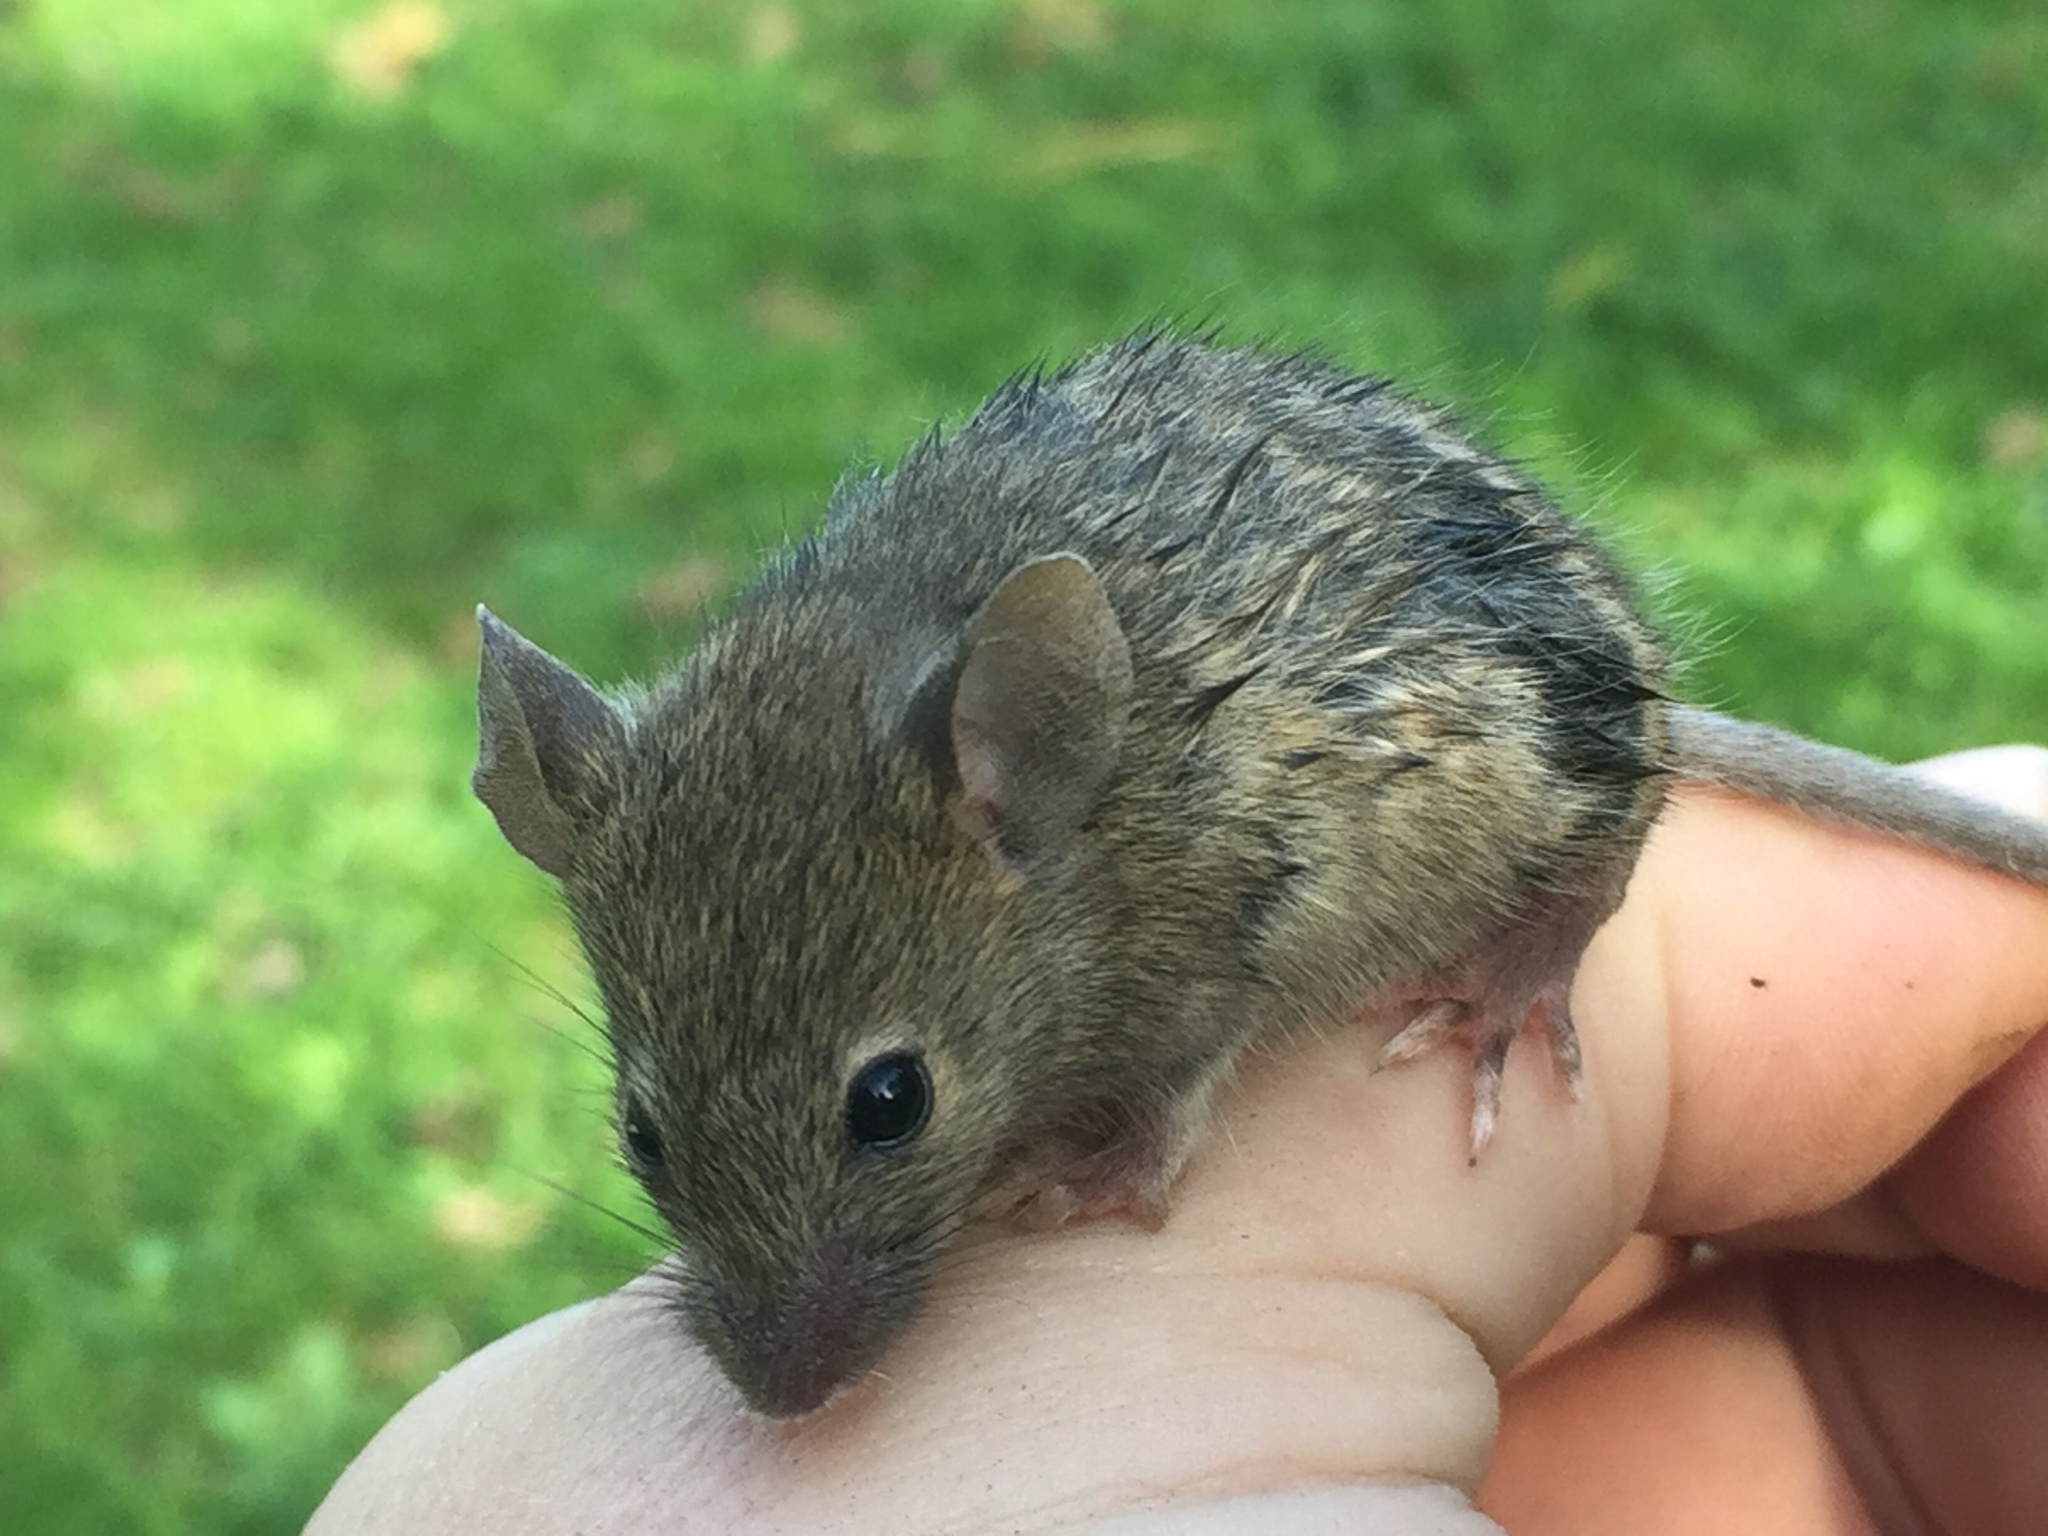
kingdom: Animalia
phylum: Chordata
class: Mammalia
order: Rodentia
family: Muridae
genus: Mus
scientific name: Mus musculus
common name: House mouse
